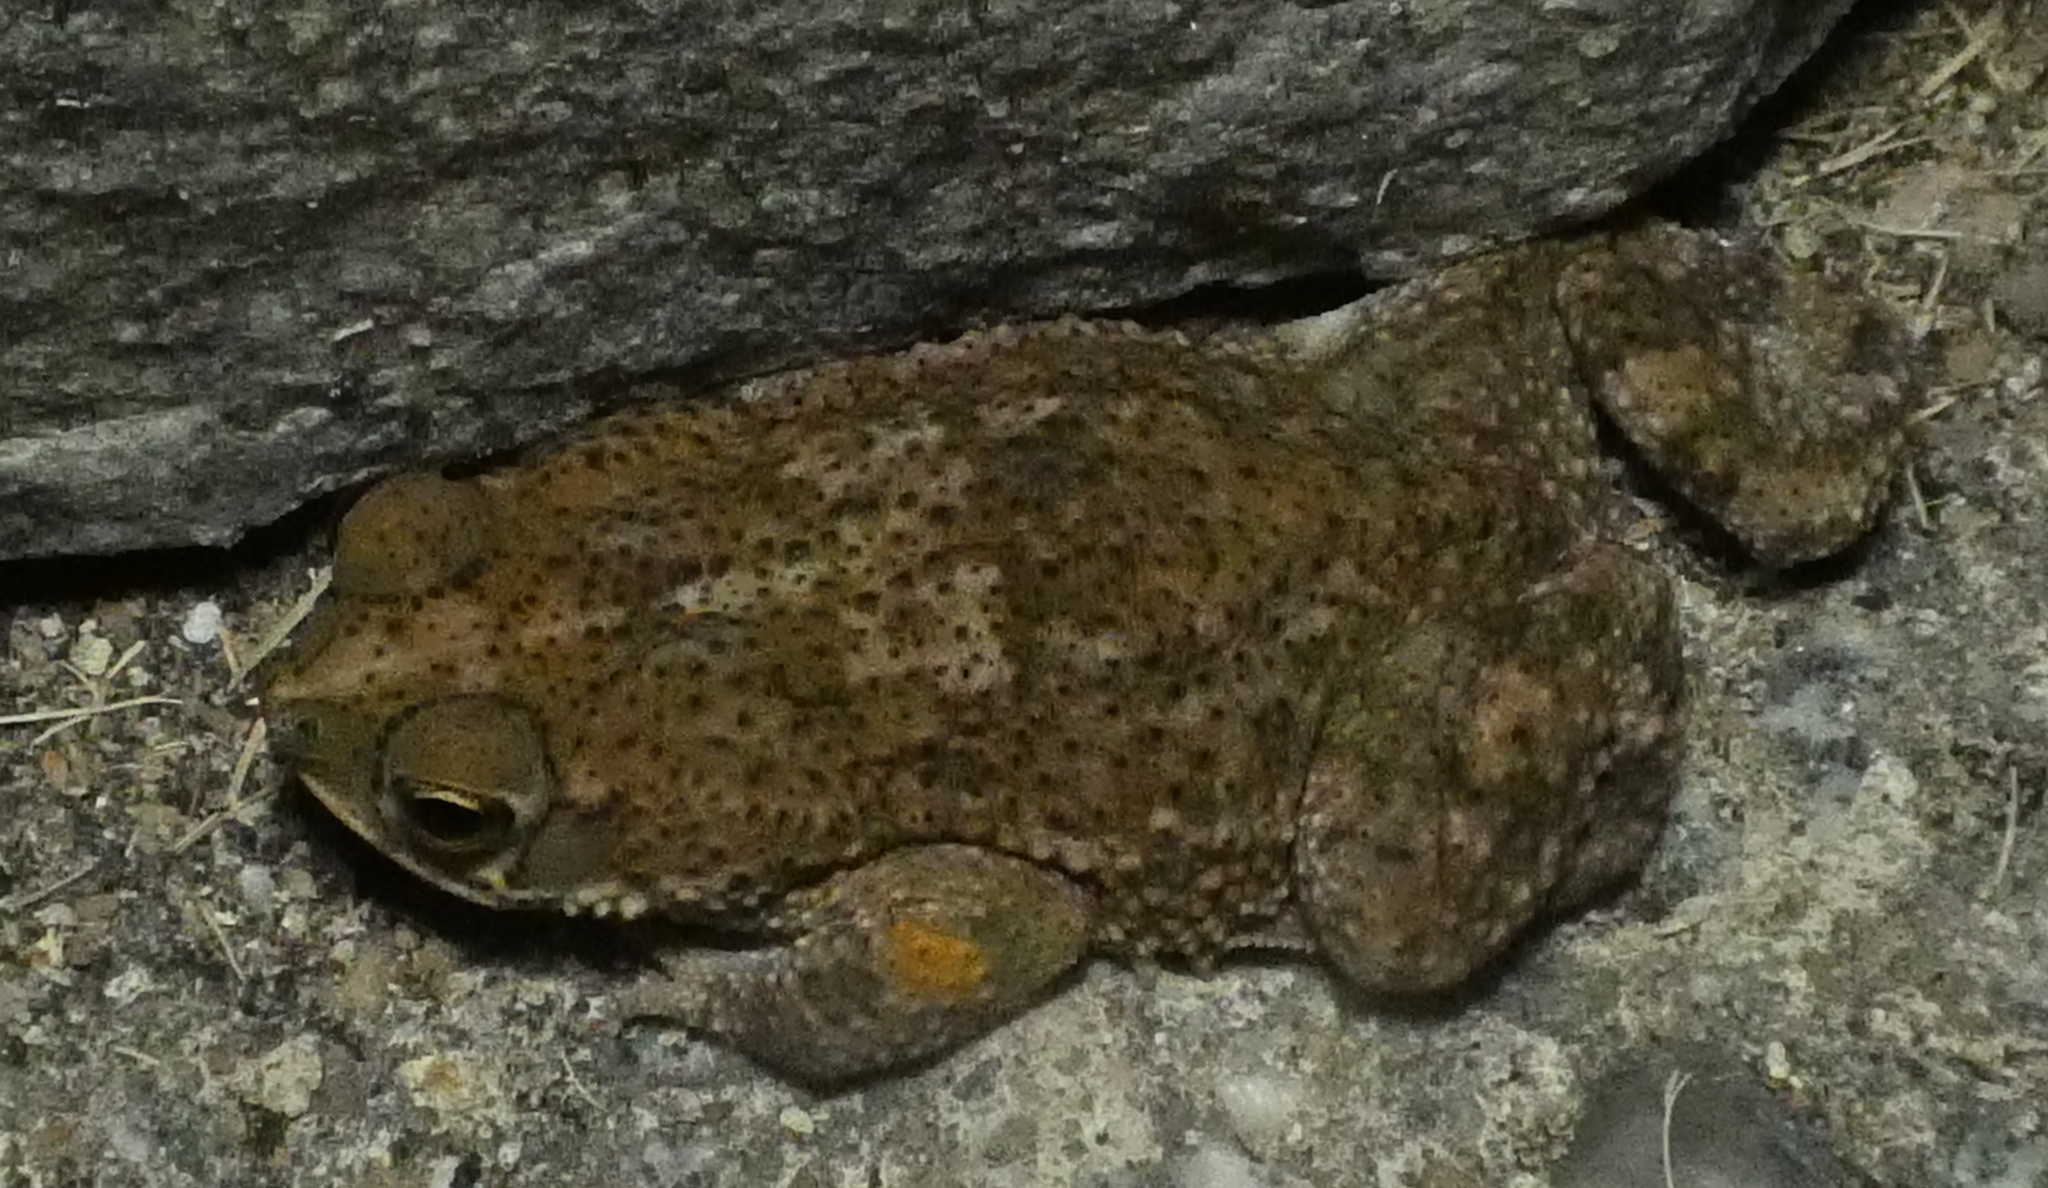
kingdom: Animalia
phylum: Chordata
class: Amphibia
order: Anura
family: Bufonidae
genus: Rhinella
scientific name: Rhinella granulosa
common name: Common lesser toad
